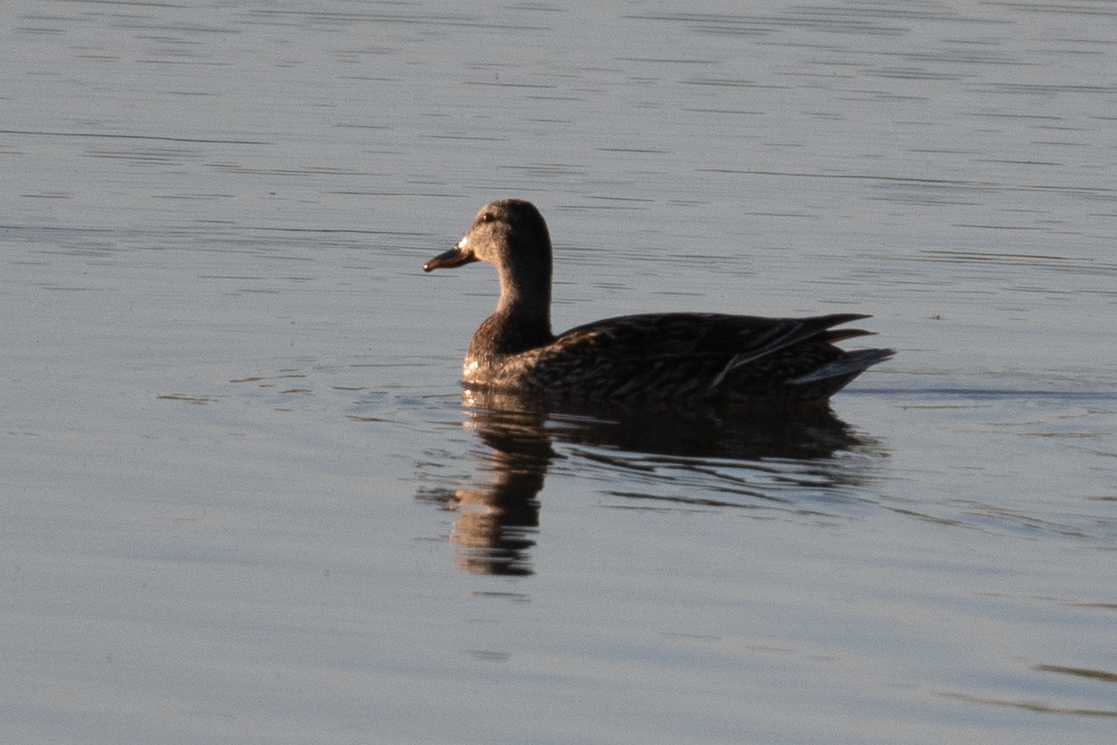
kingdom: Animalia
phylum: Chordata
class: Aves
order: Anseriformes
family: Anatidae
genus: Anas
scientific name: Anas platyrhynchos
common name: Mallard
